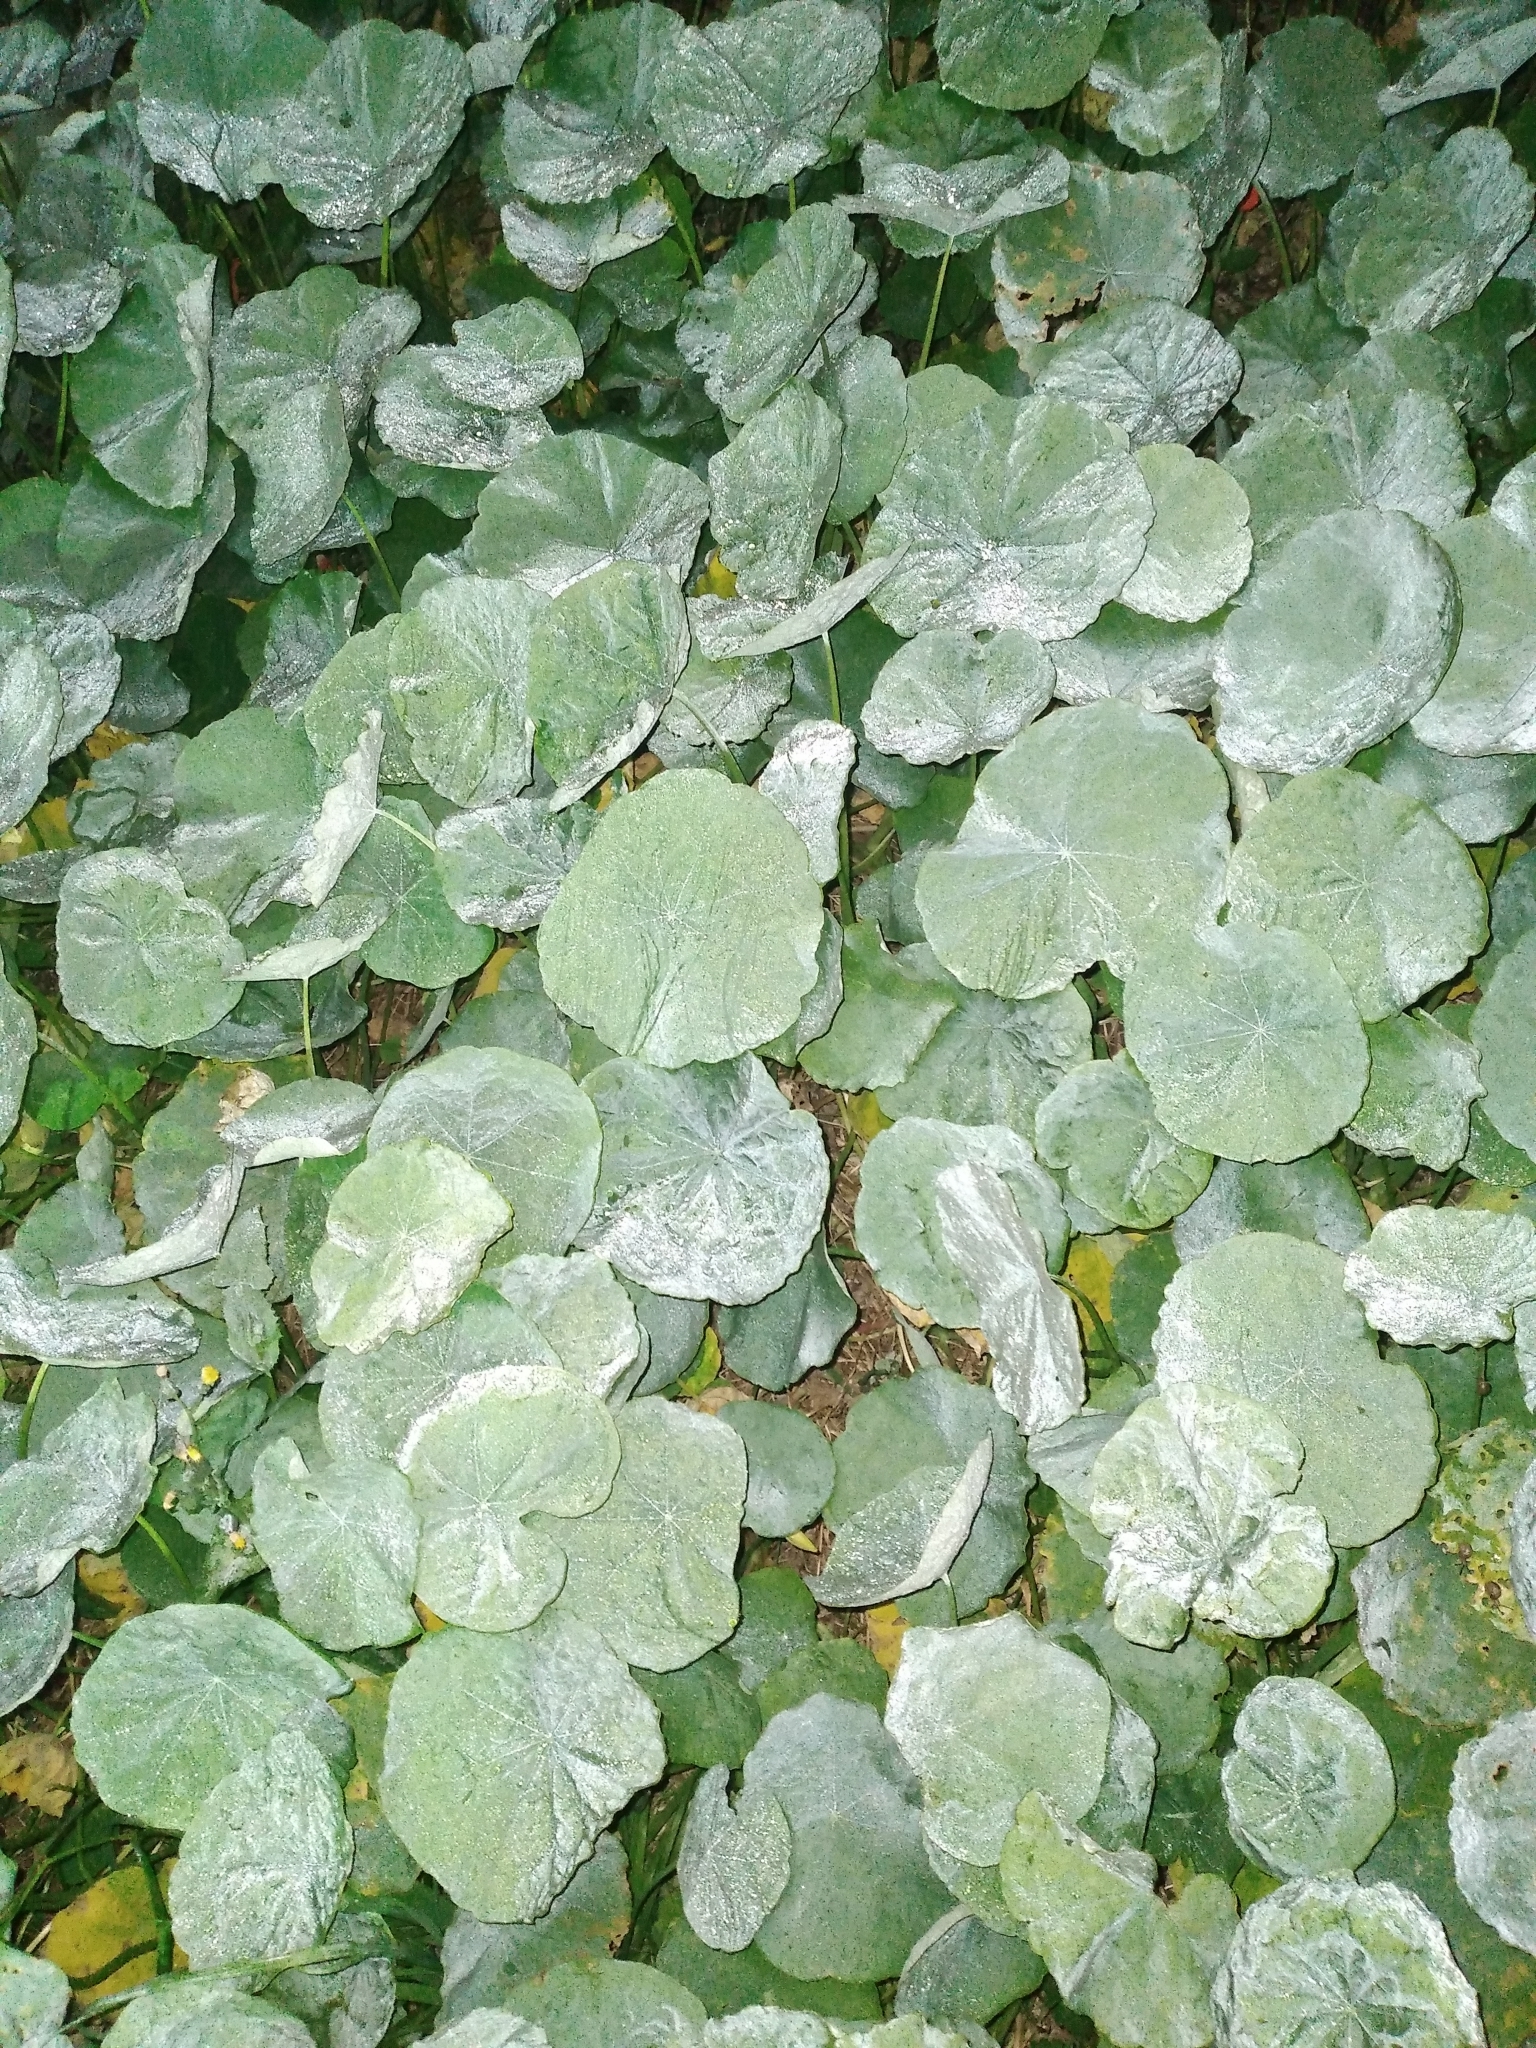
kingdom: Plantae
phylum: Tracheophyta
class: Magnoliopsida
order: Brassicales
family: Tropaeolaceae
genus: Tropaeolum
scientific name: Tropaeolum majus
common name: Nasturtium
